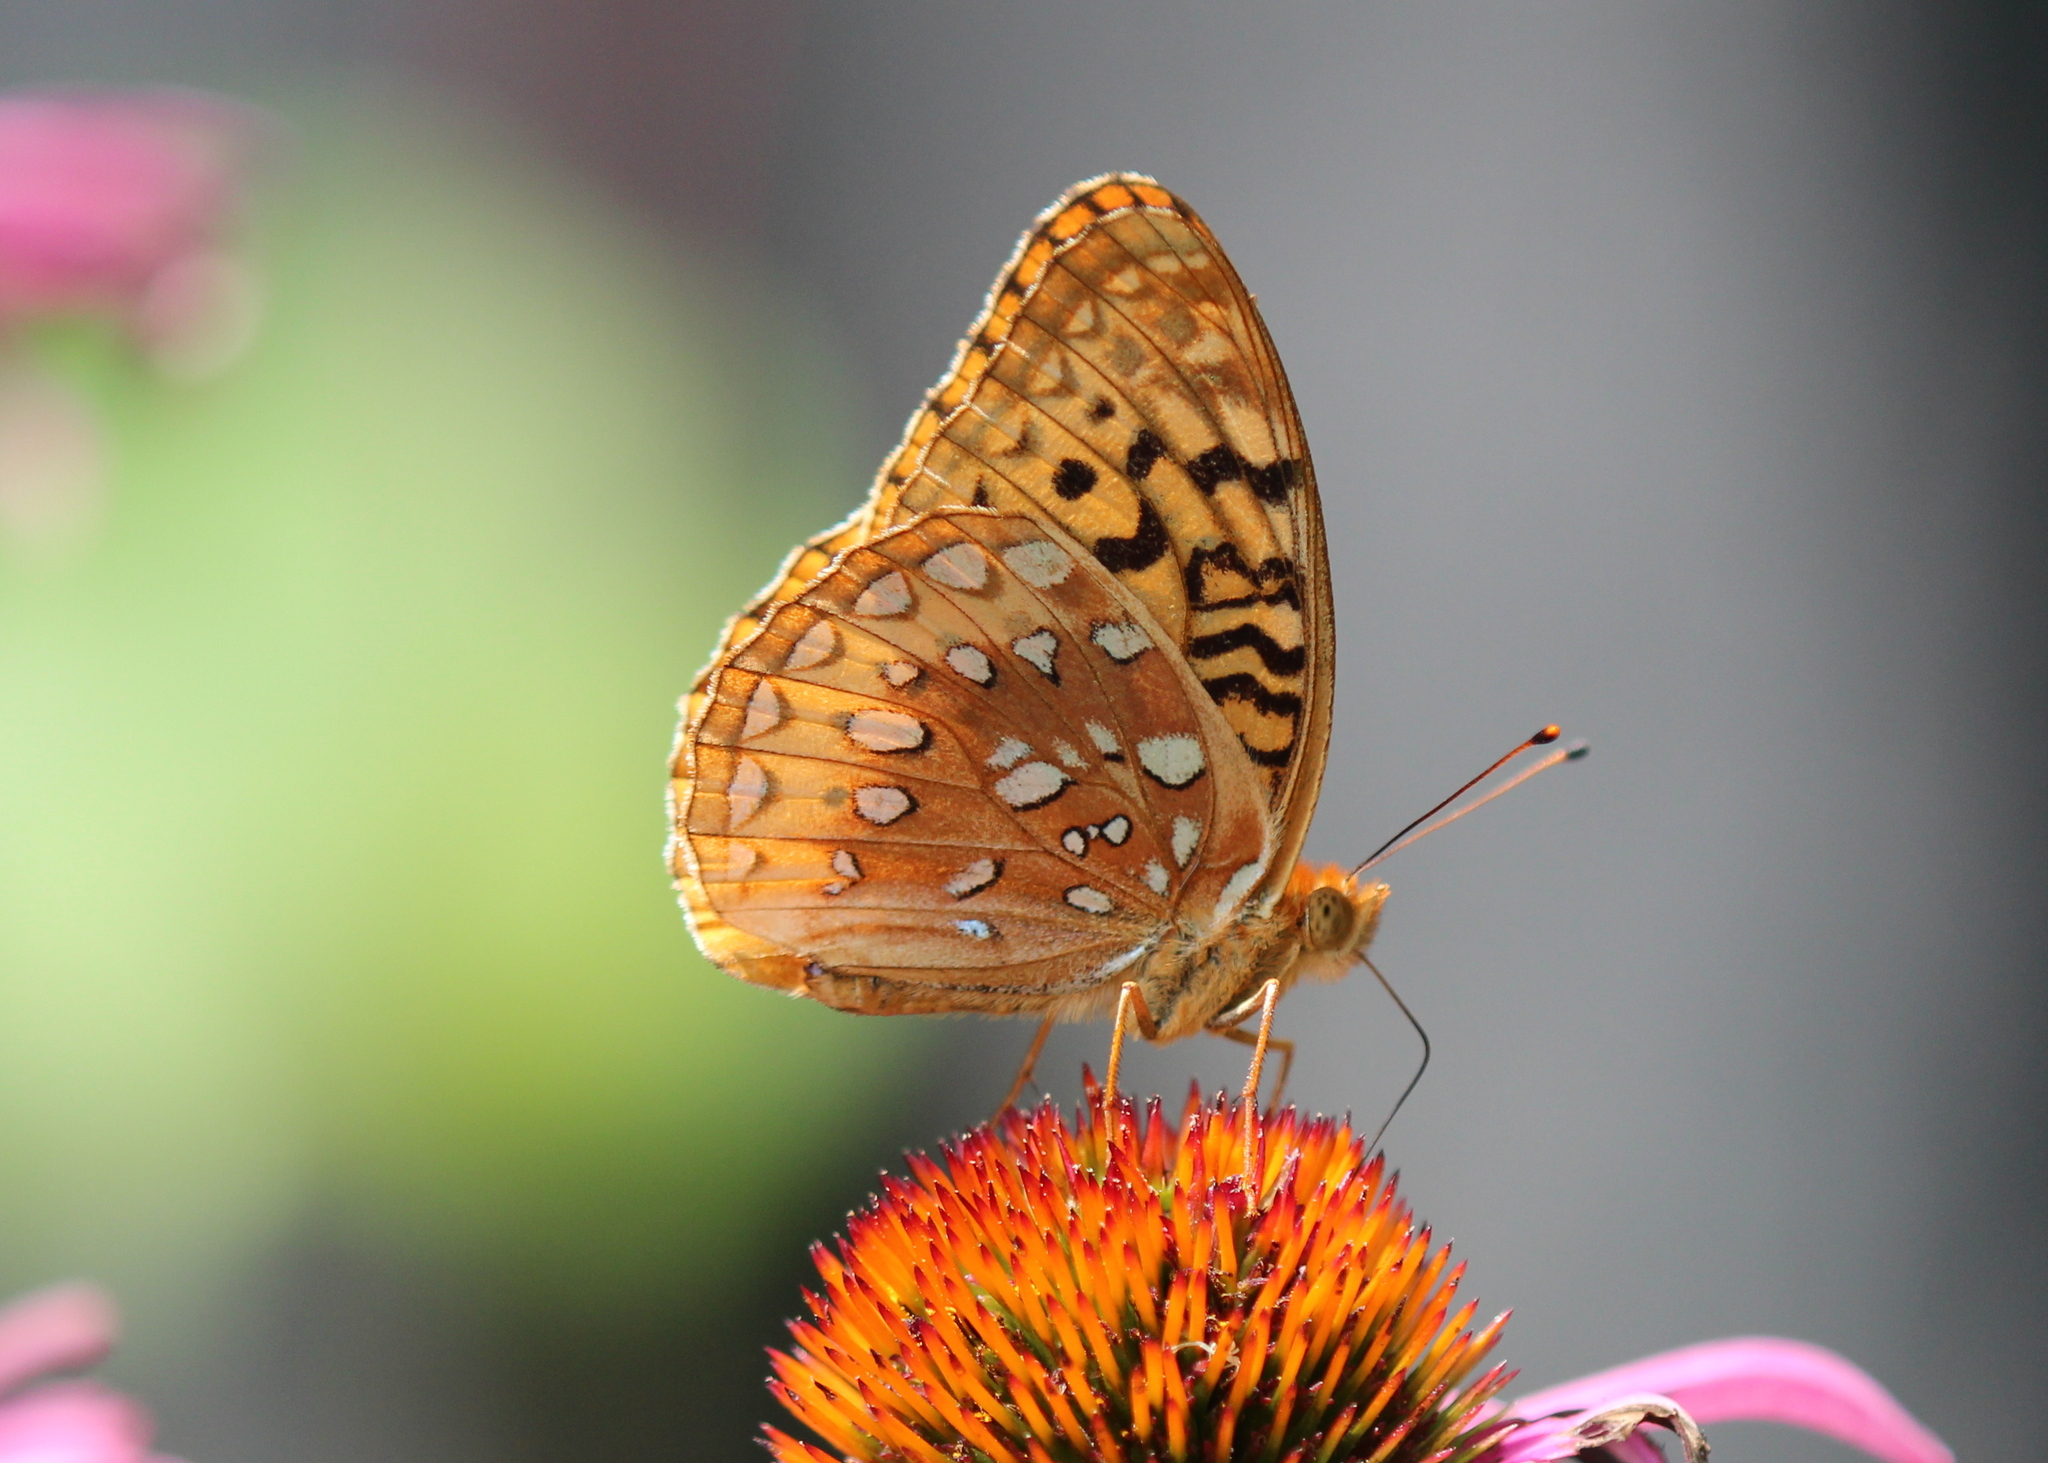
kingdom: Animalia
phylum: Arthropoda
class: Insecta
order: Lepidoptera
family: Nymphalidae
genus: Speyeria
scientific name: Speyeria cybele
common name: Great spangled fritillary
